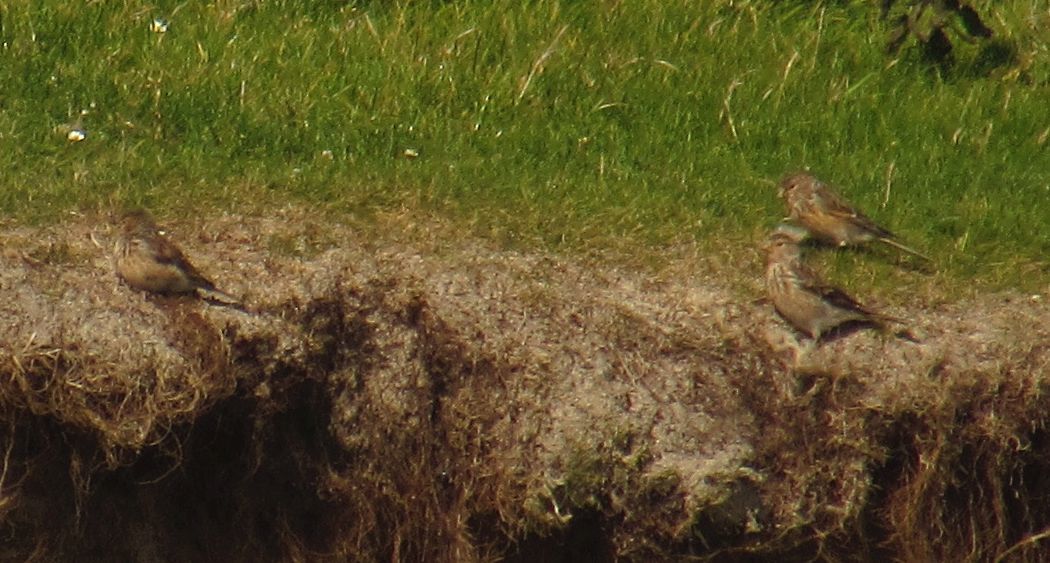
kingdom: Animalia
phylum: Chordata
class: Aves
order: Passeriformes
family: Fringillidae
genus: Linaria
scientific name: Linaria flavirostris
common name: Twite
